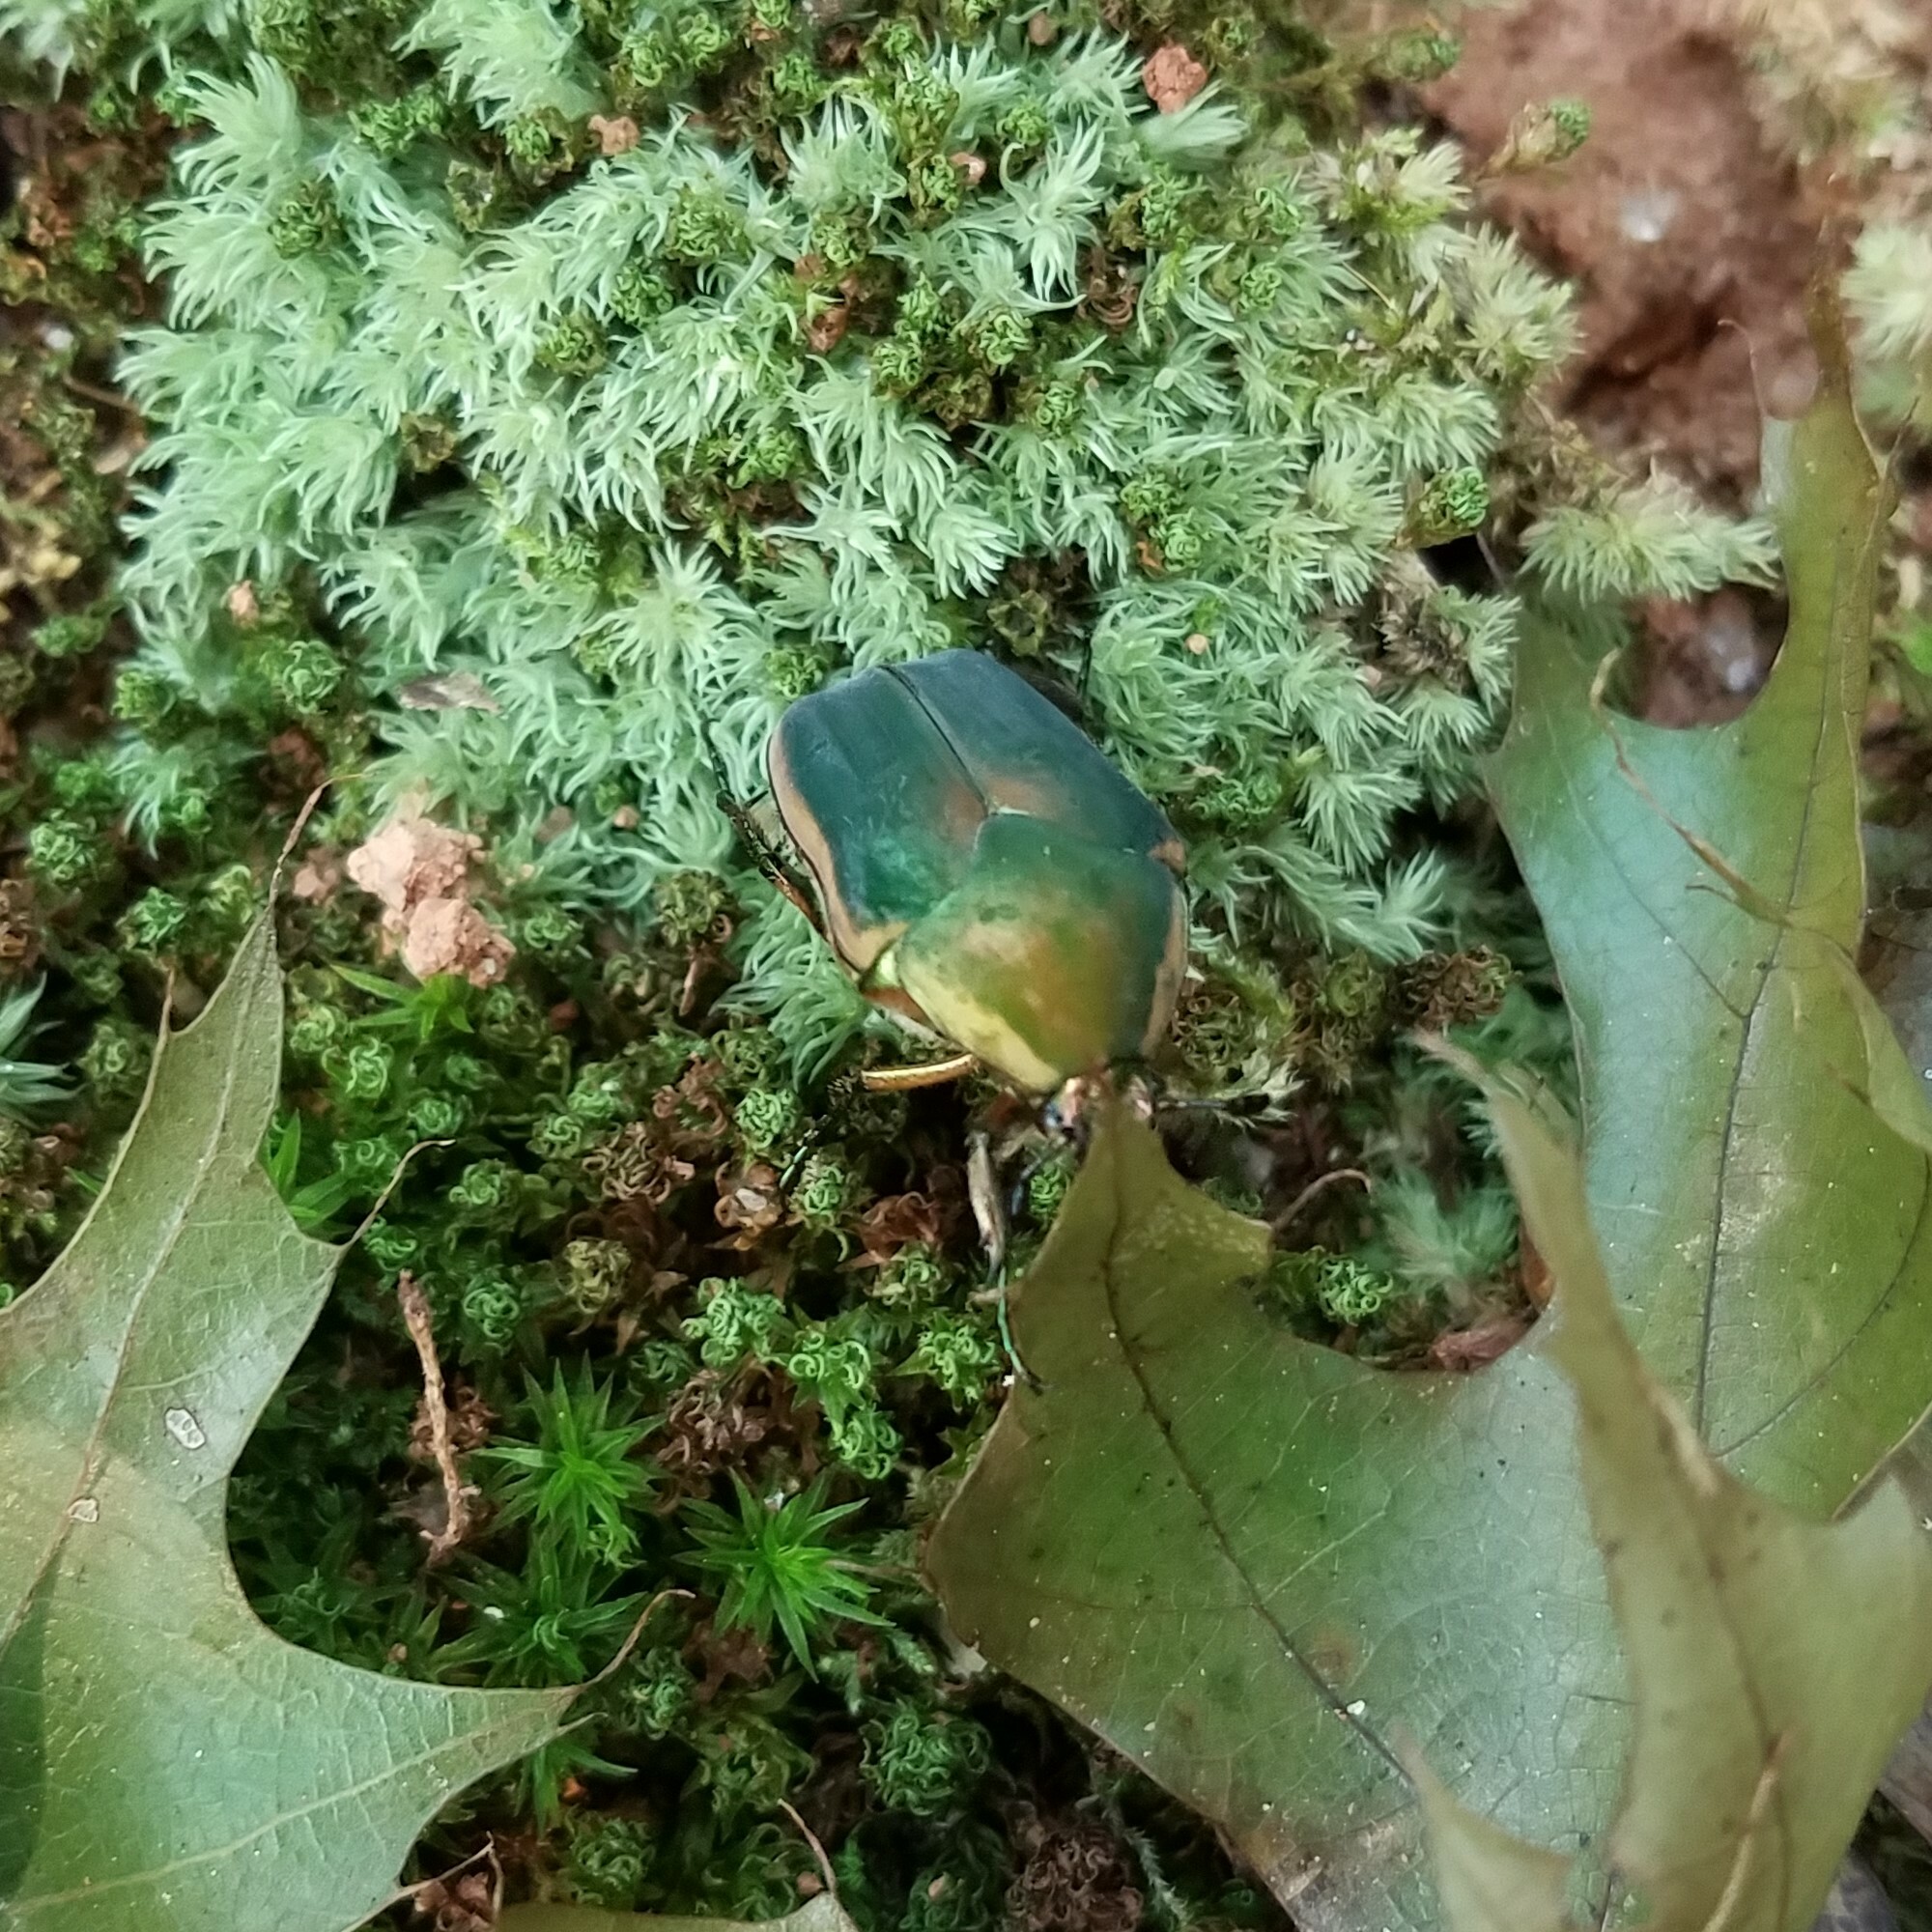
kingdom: Animalia
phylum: Arthropoda
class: Insecta
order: Coleoptera
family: Scarabaeidae
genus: Cotinis
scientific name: Cotinis nitida
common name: Common green june beetle
